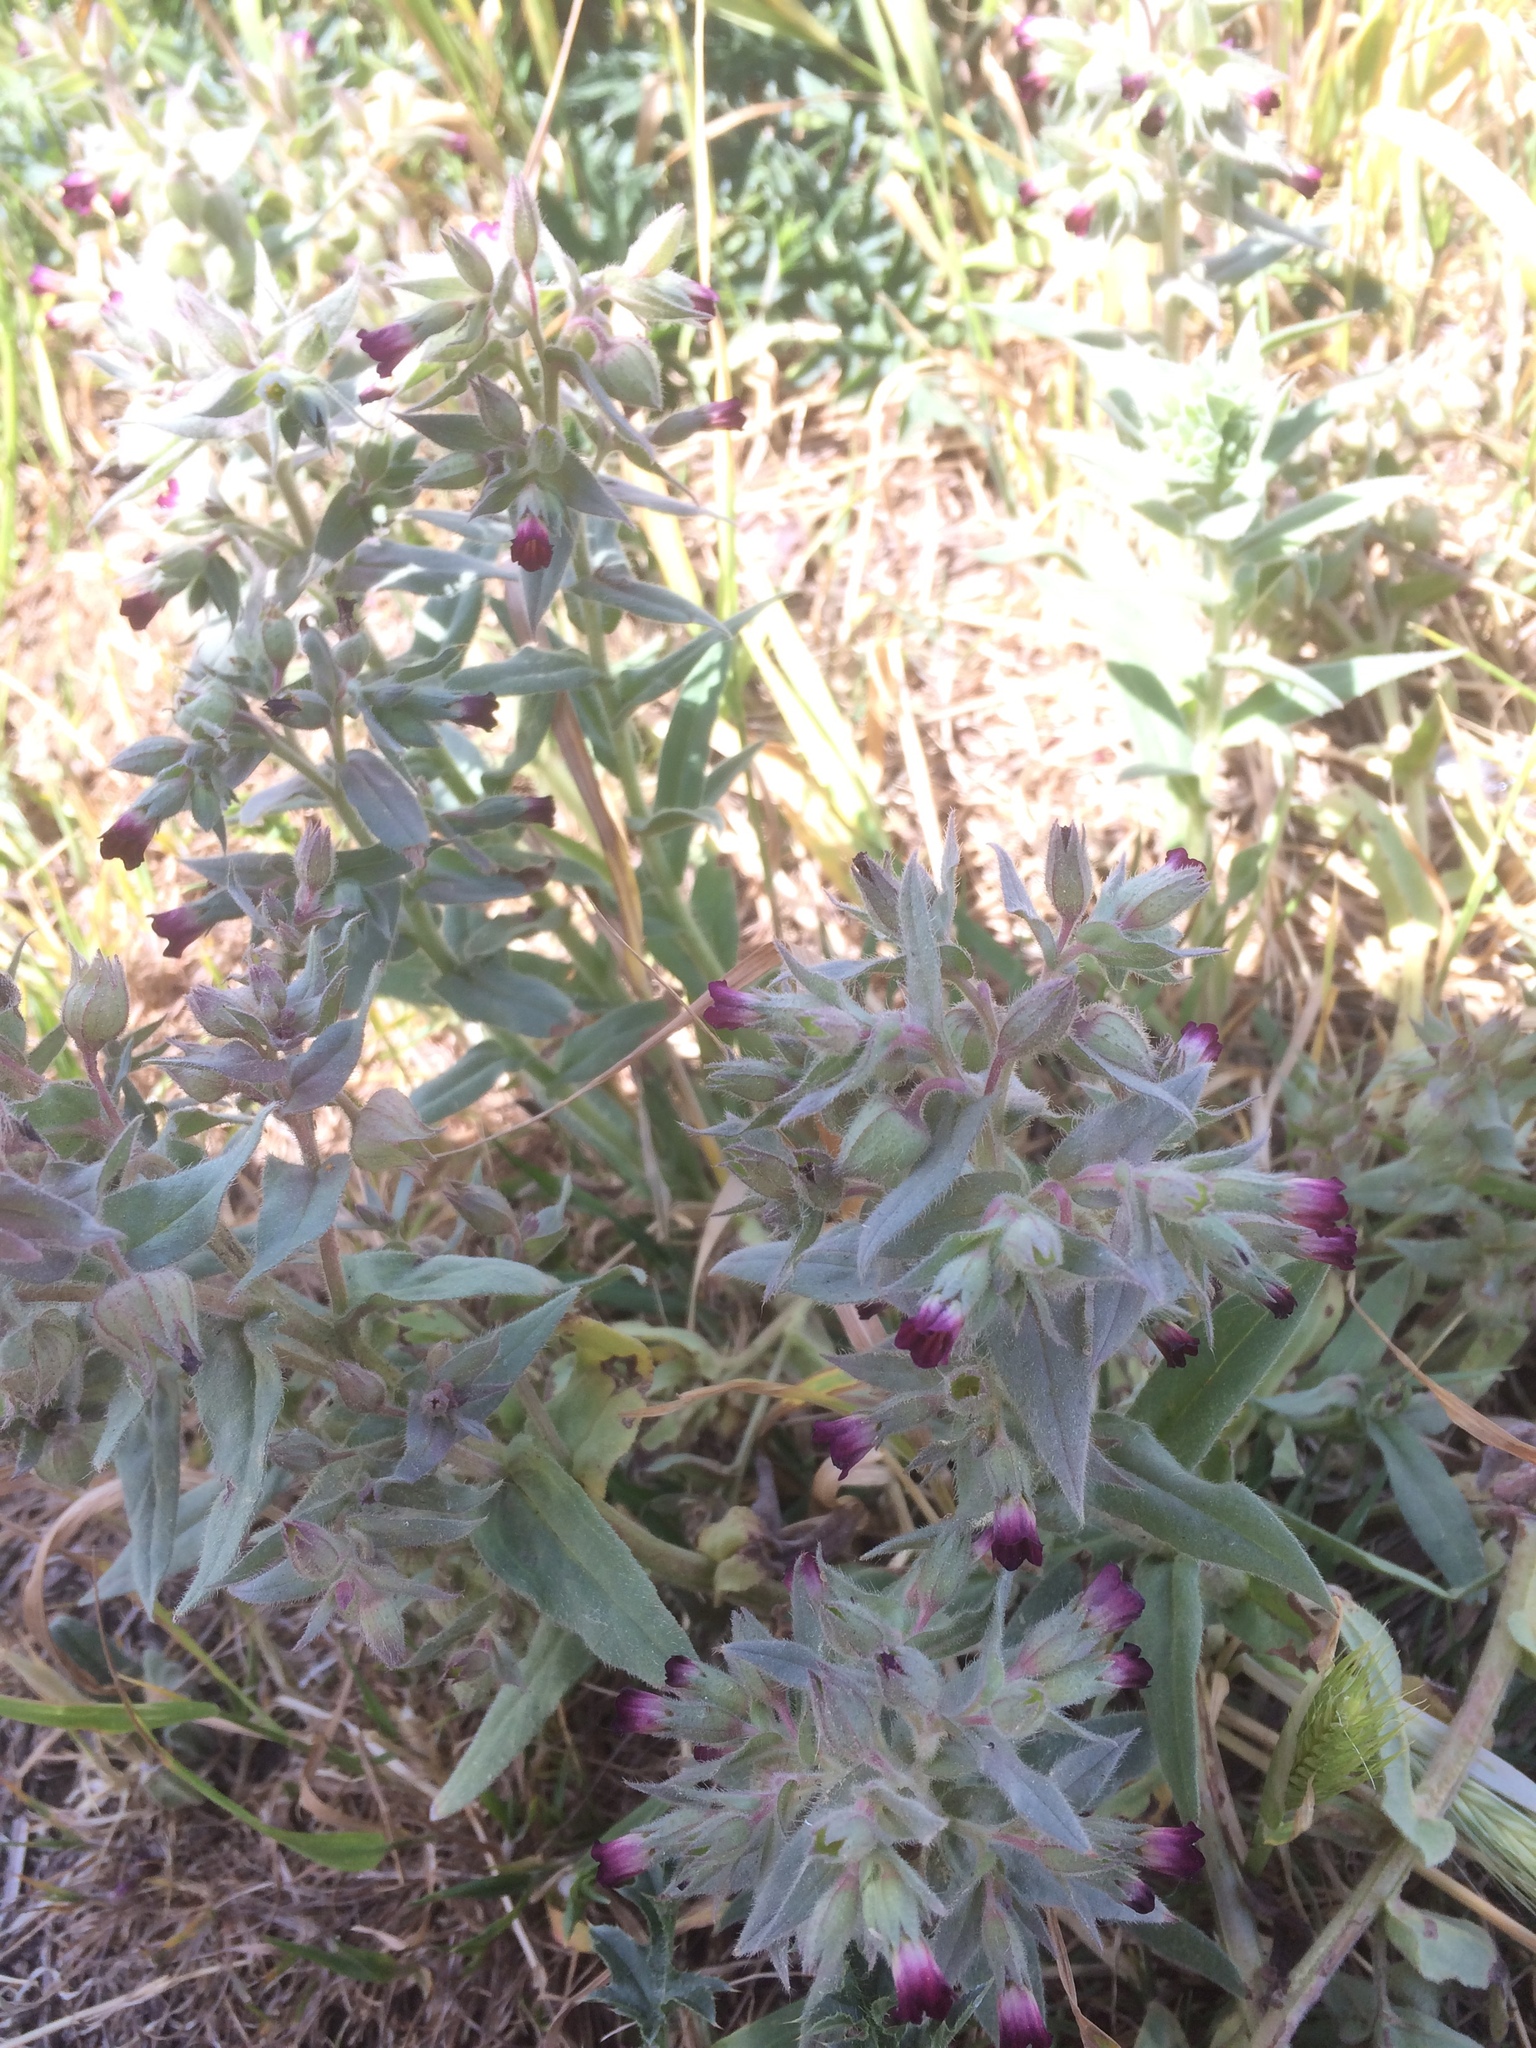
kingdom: Plantae
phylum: Tracheophyta
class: Magnoliopsida
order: Boraginales
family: Boraginaceae
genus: Nonea
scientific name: Nonea pulla
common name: Brown nonea
